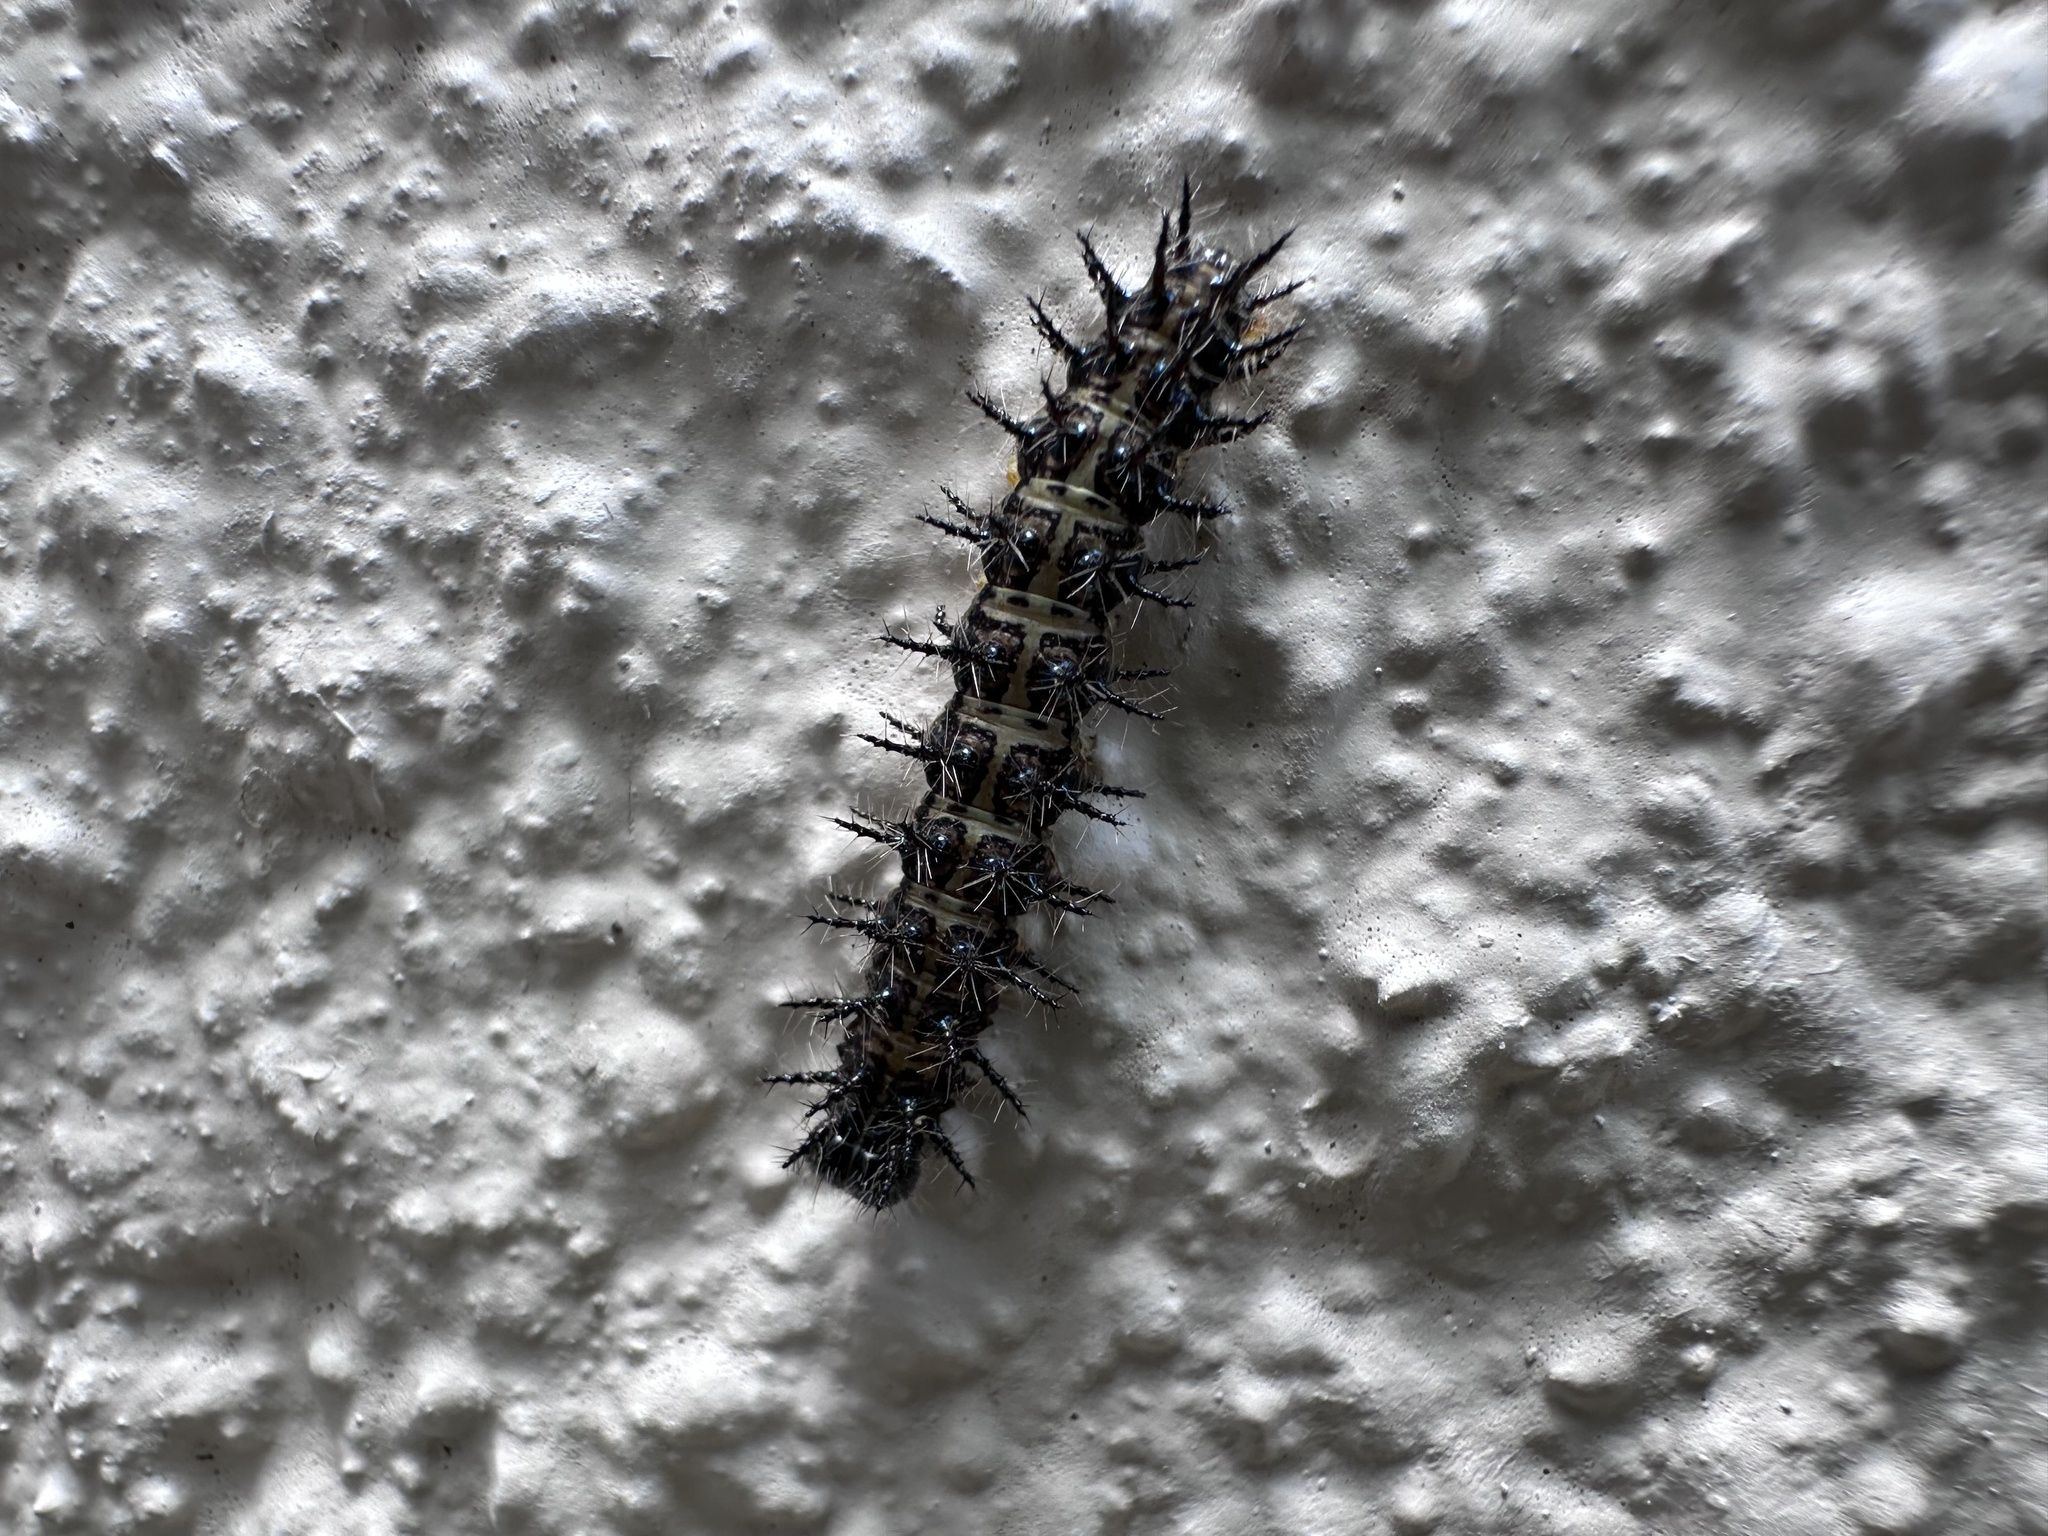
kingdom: Animalia
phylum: Arthropoda
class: Insecta
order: Lepidoptera
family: Nymphalidae
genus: Acraea
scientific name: Acraea horta
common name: Garden acraea
